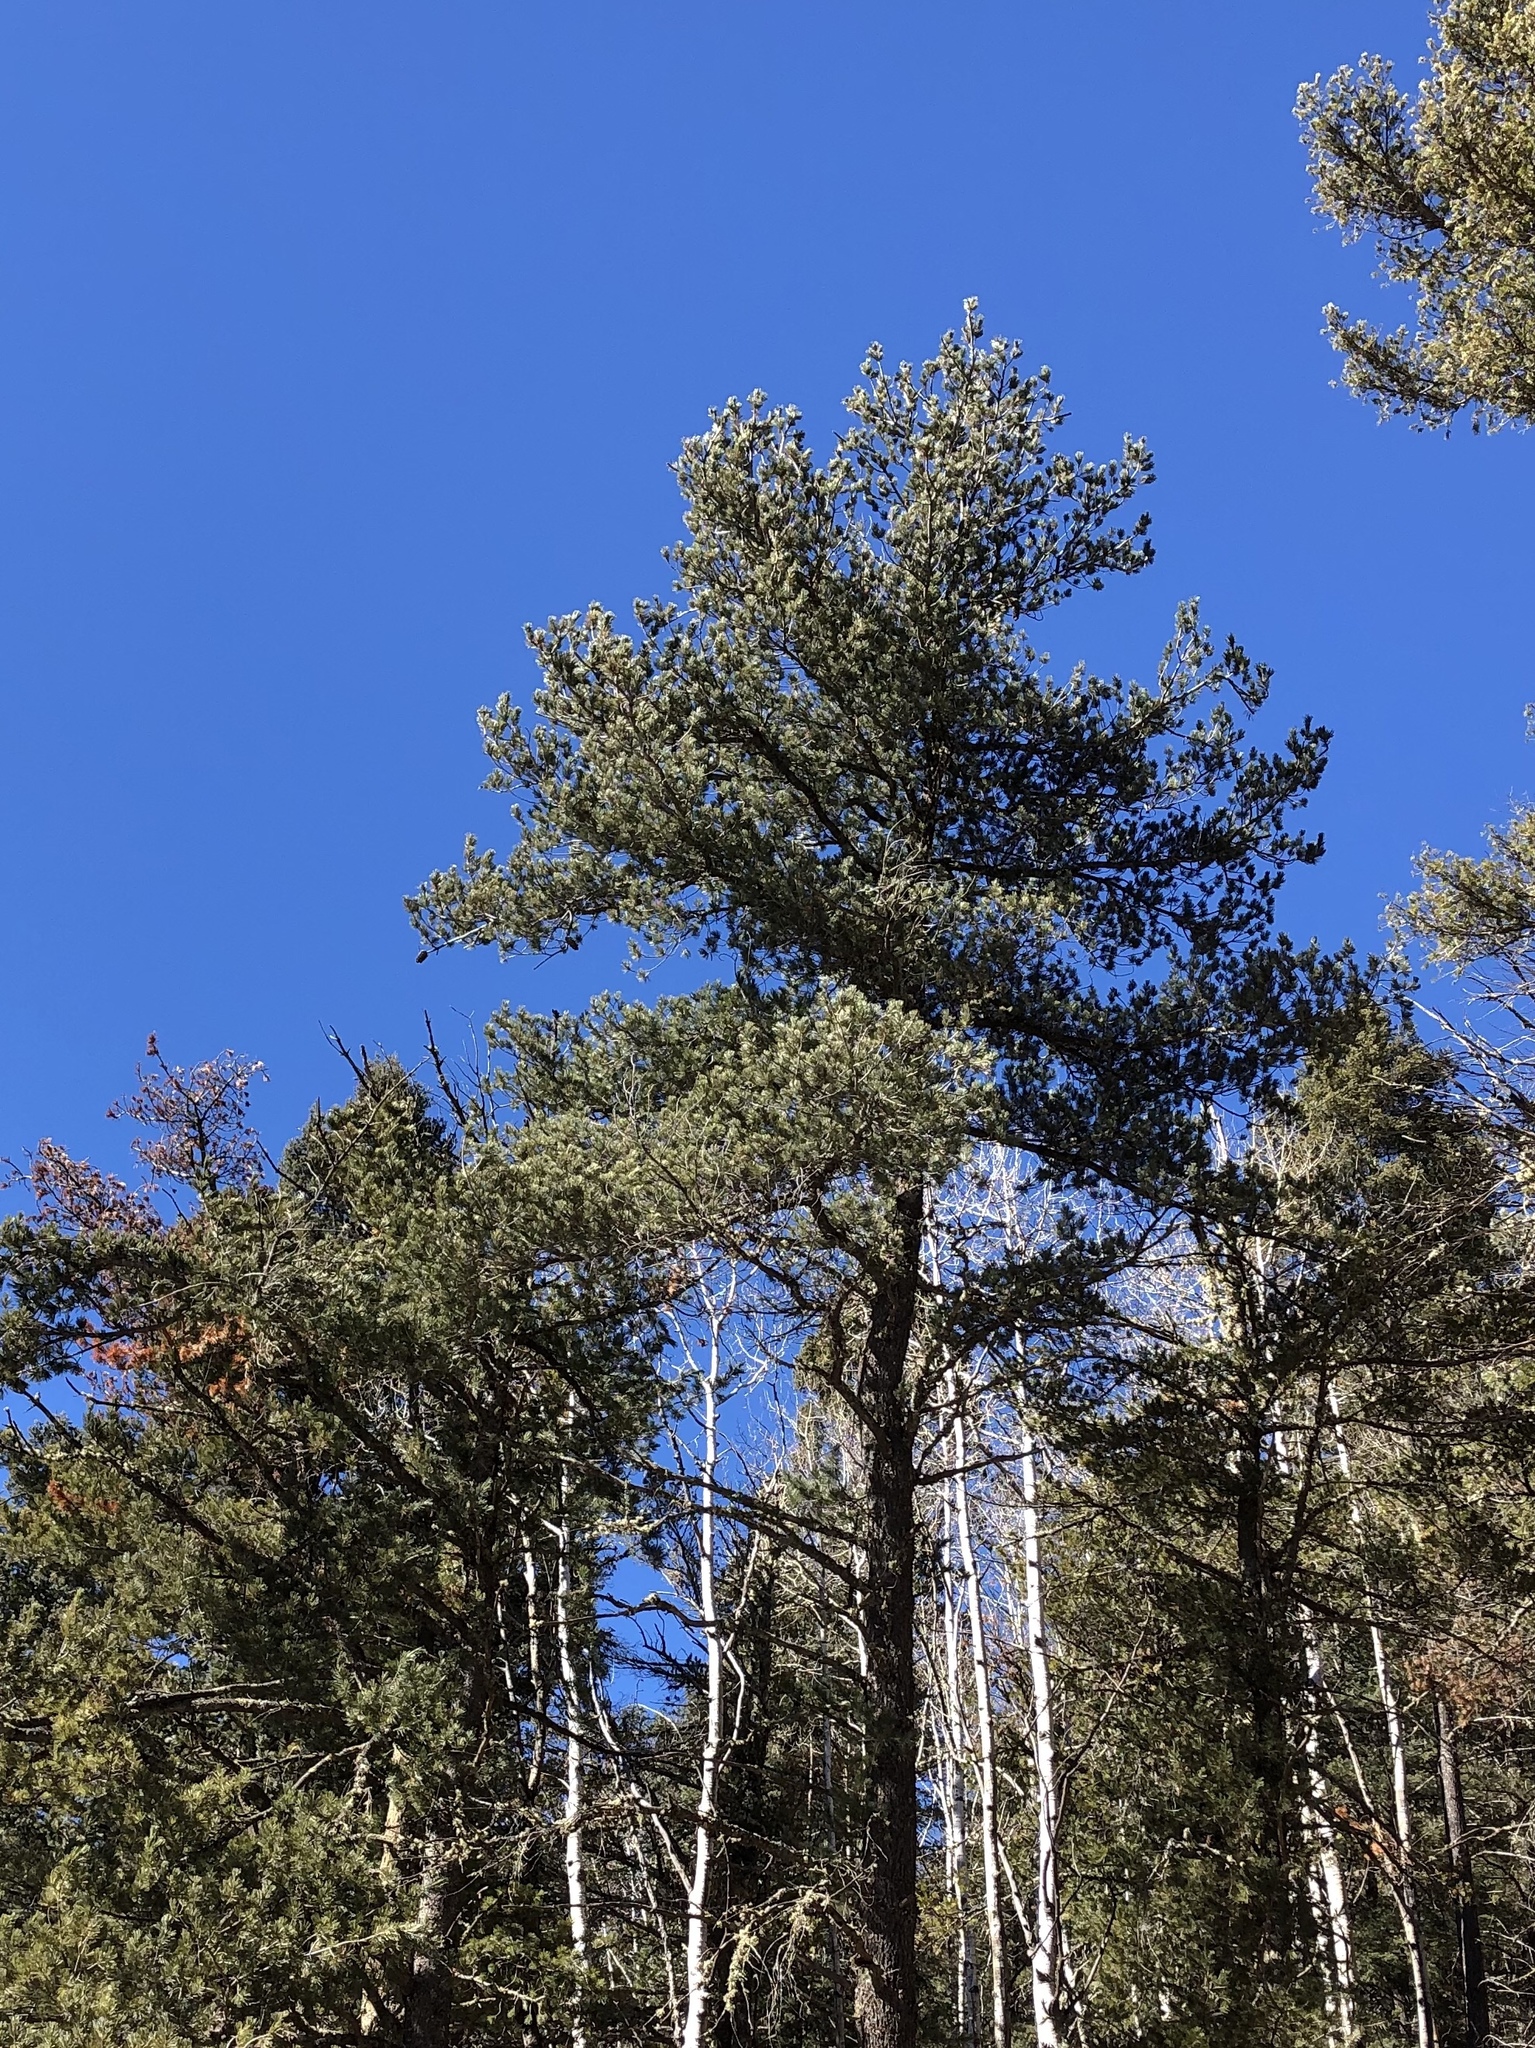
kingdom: Plantae
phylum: Tracheophyta
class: Pinopsida
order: Pinales
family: Pinaceae
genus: Pinus
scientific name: Pinus strobiformis
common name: Southwestern white pine
